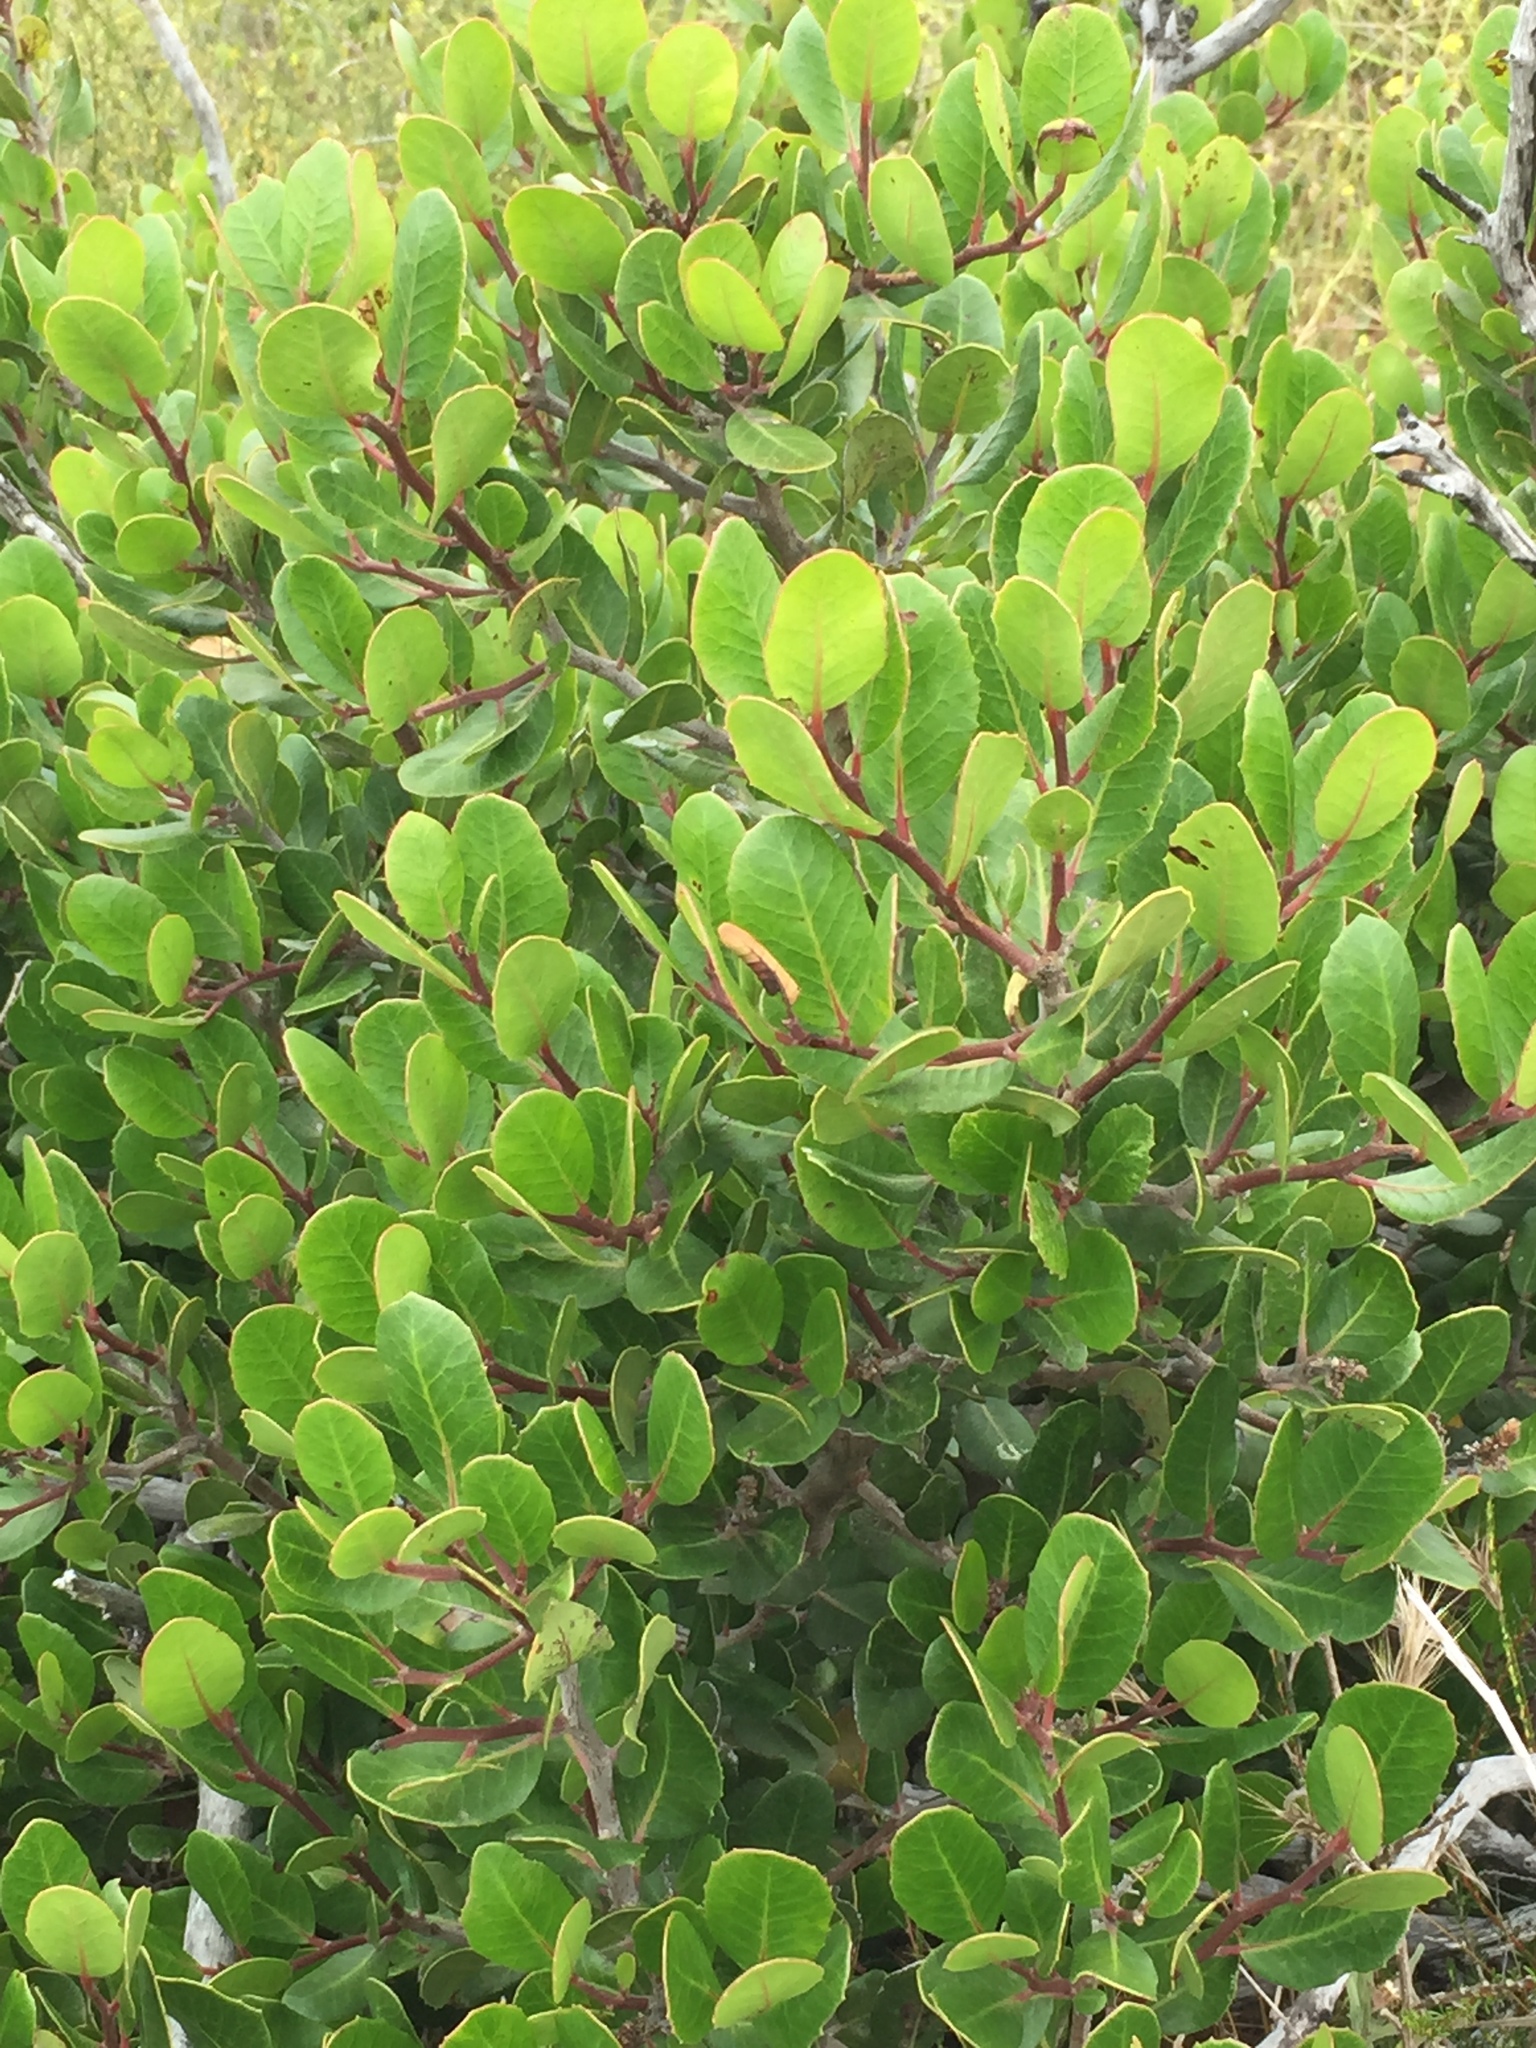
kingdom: Plantae
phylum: Tracheophyta
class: Magnoliopsida
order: Sapindales
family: Anacardiaceae
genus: Rhus
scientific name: Rhus integrifolia
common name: Lemonade sumac
